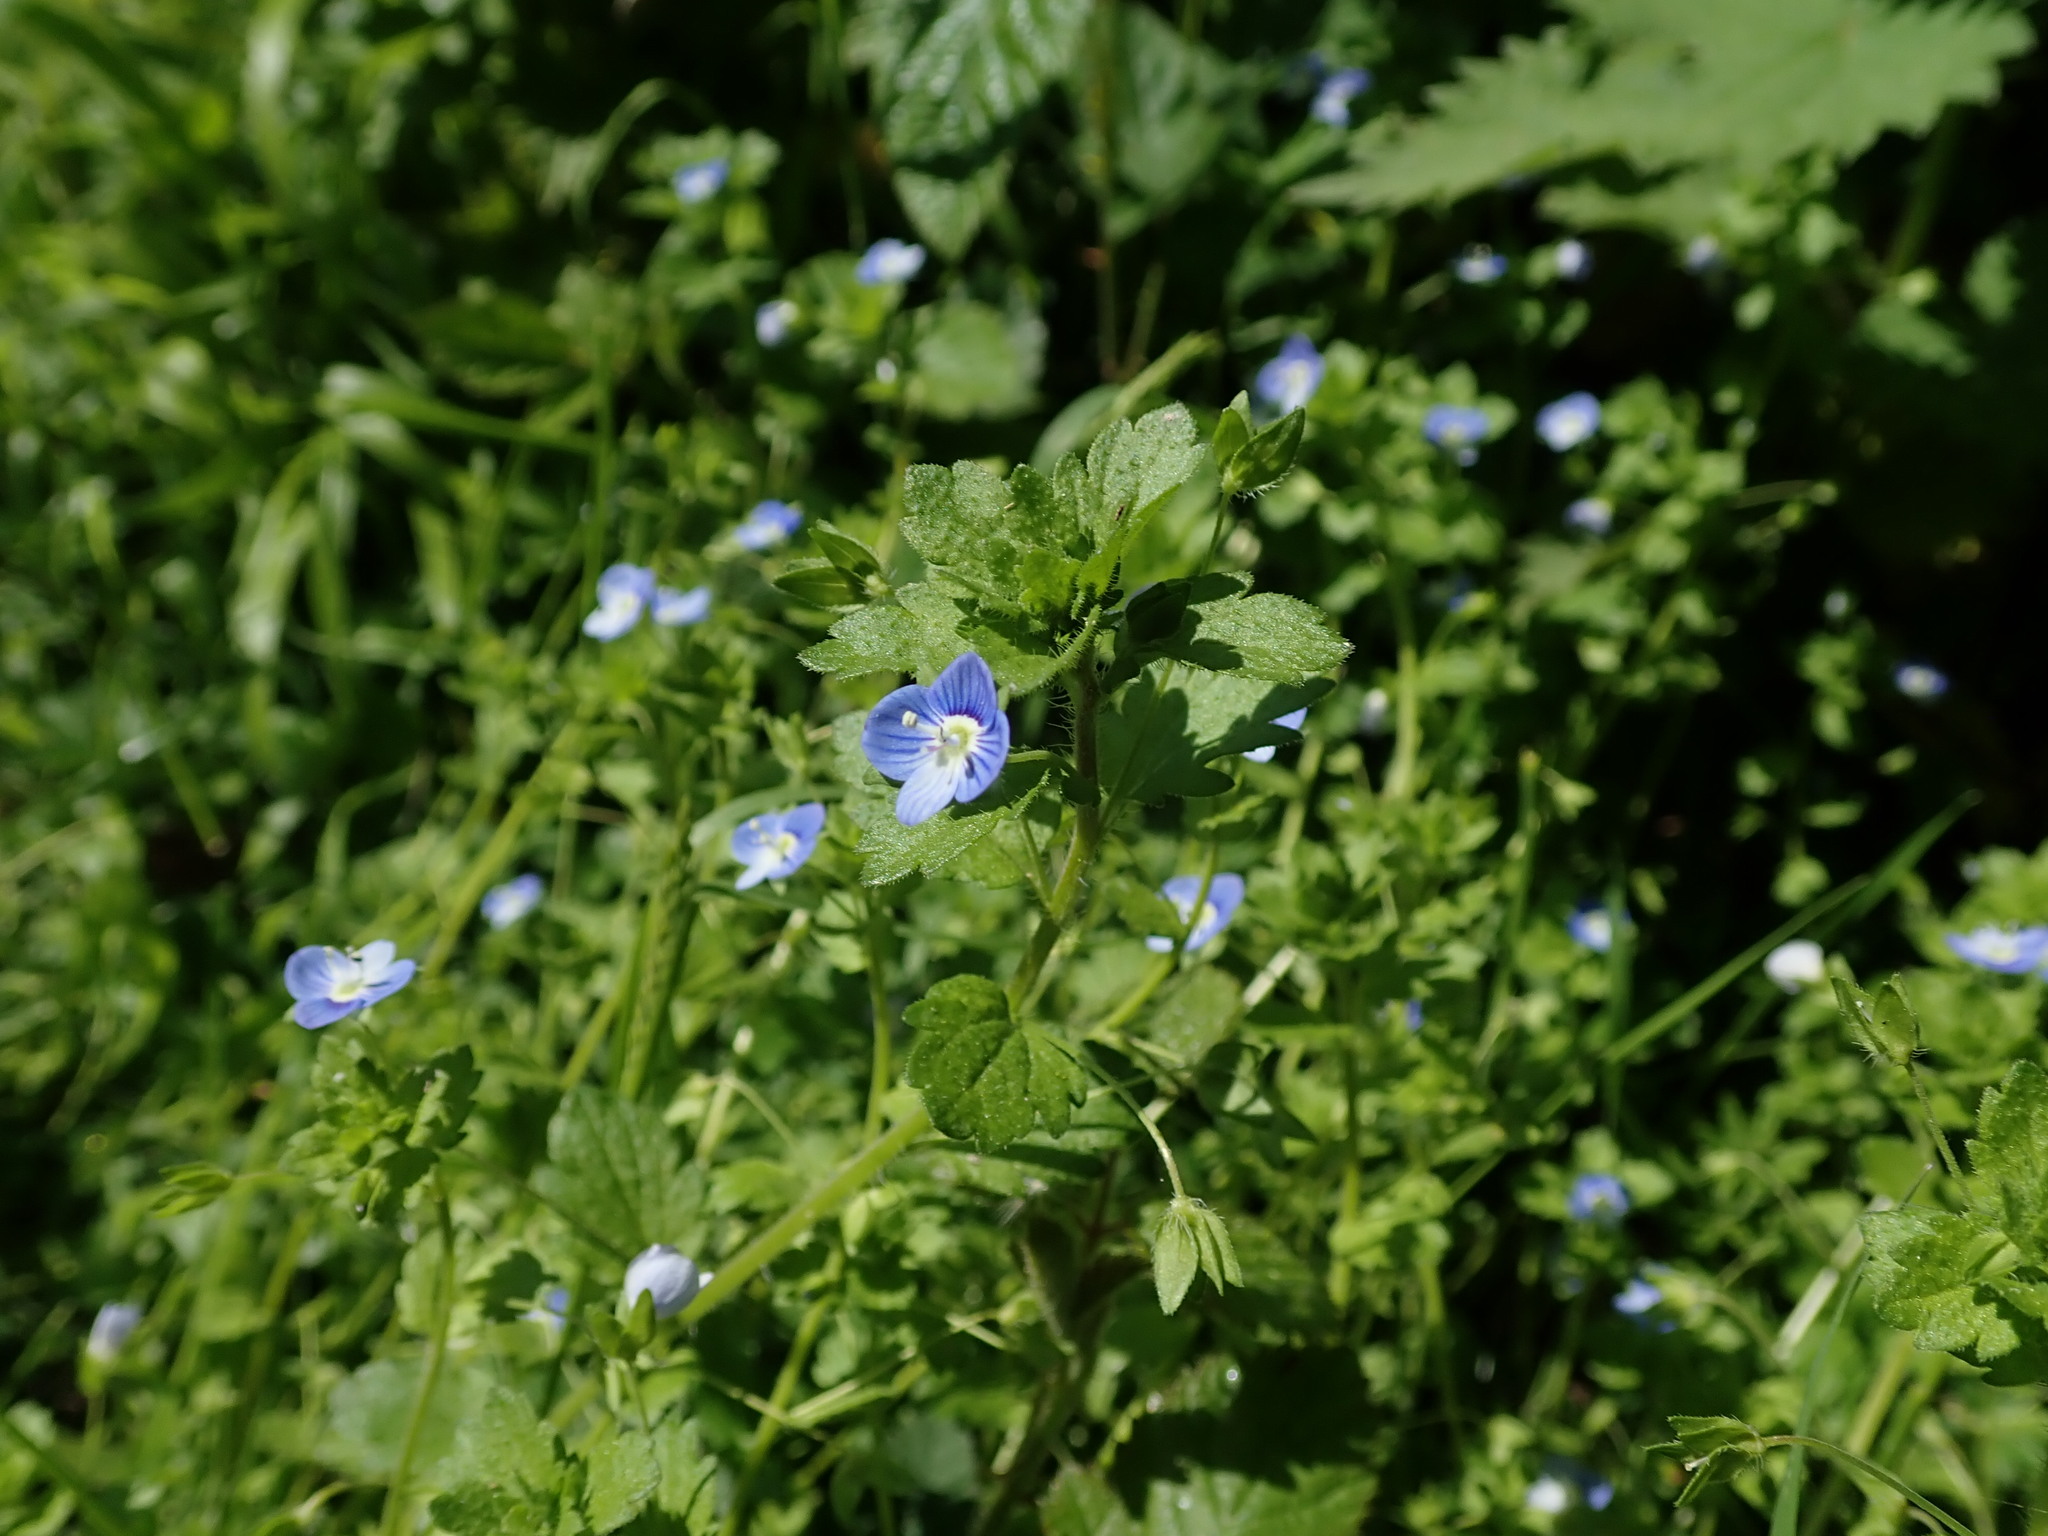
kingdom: Plantae
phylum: Tracheophyta
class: Magnoliopsida
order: Lamiales
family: Plantaginaceae
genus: Veronica
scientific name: Veronica persica
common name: Common field-speedwell
